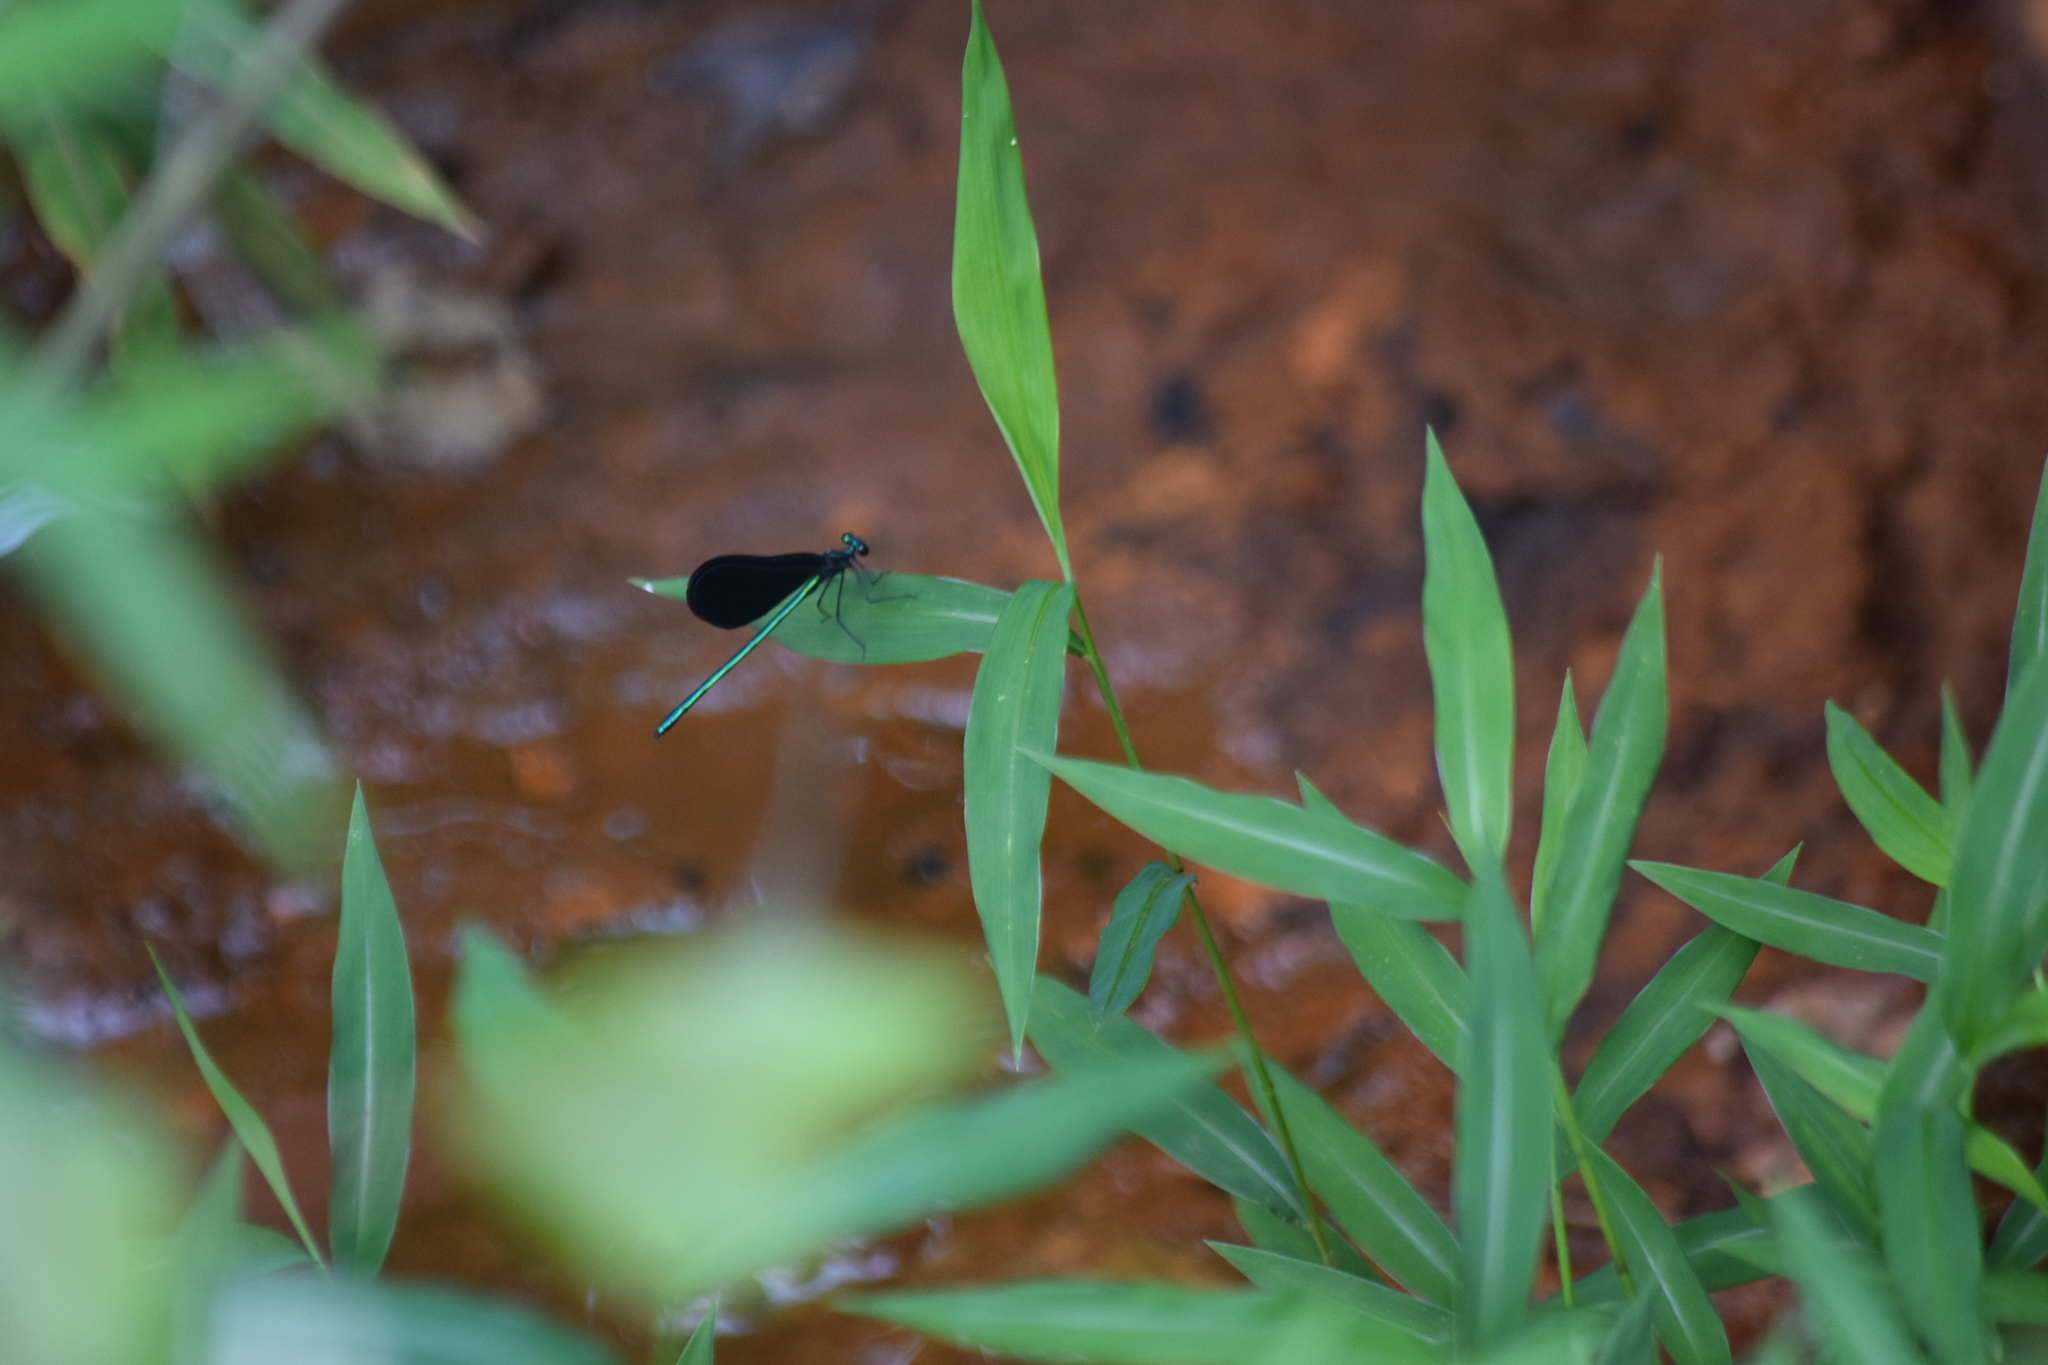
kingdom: Animalia
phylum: Arthropoda
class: Insecta
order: Odonata
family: Calopterygidae
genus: Calopteryx
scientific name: Calopteryx maculata
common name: Ebony jewelwing
